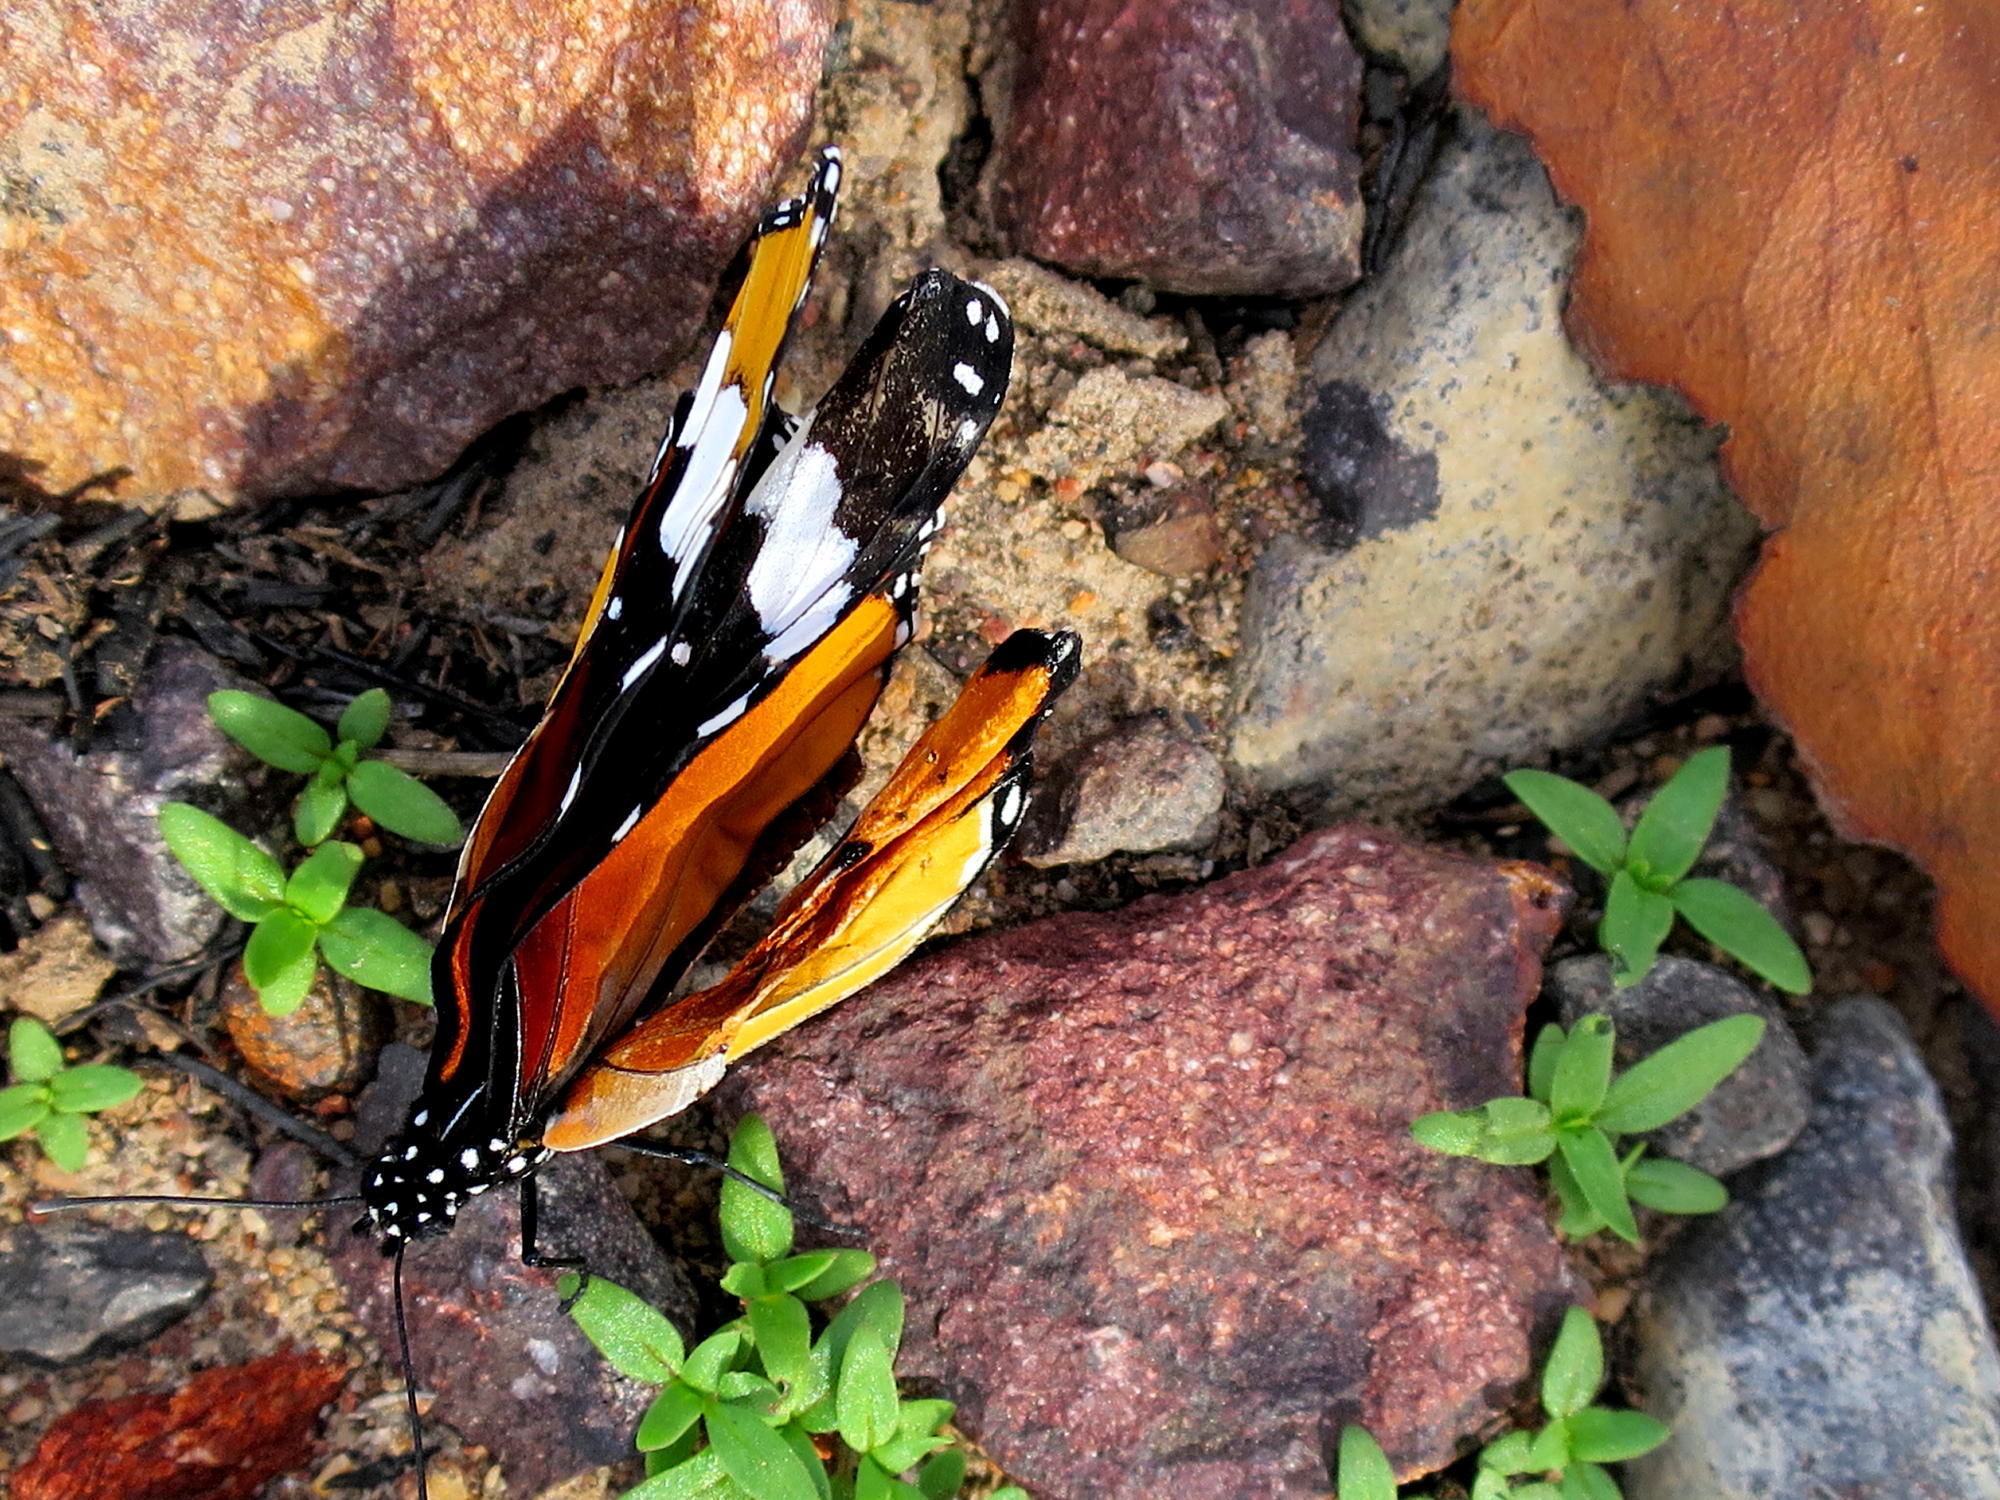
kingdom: Animalia
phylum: Arthropoda
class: Insecta
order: Lepidoptera
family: Nymphalidae
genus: Danaus
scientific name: Danaus chrysippus
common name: Plain tiger
